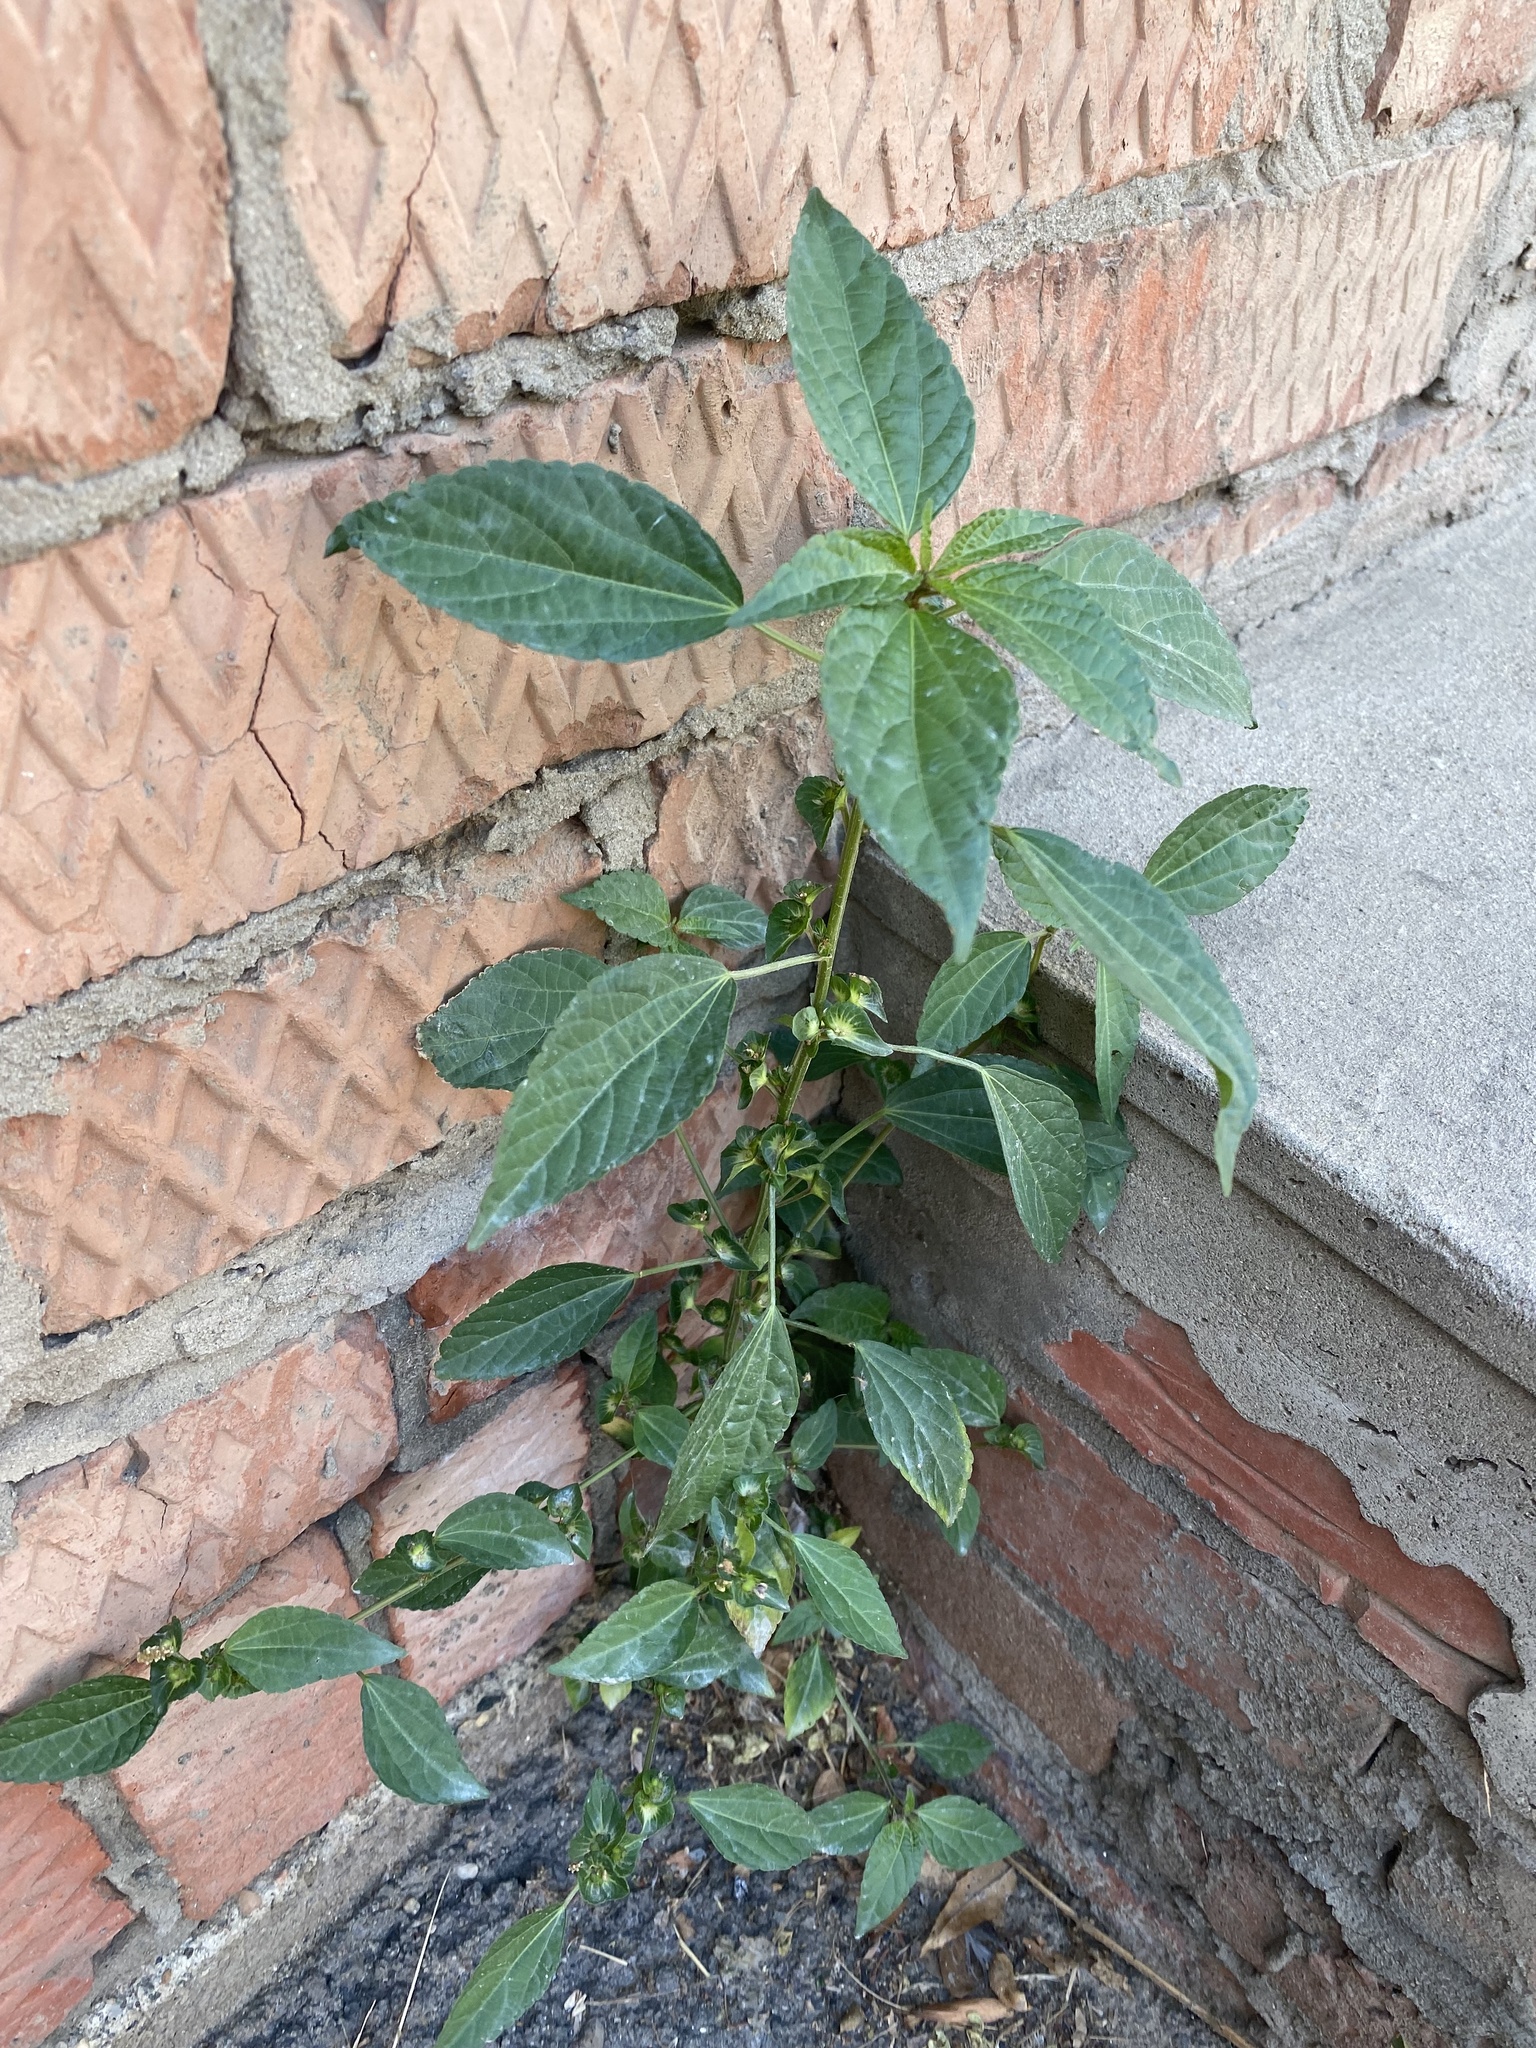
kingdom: Plantae
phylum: Tracheophyta
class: Magnoliopsida
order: Malpighiales
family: Euphorbiaceae
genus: Acalypha
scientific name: Acalypha australis
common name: Asian copperleaf
